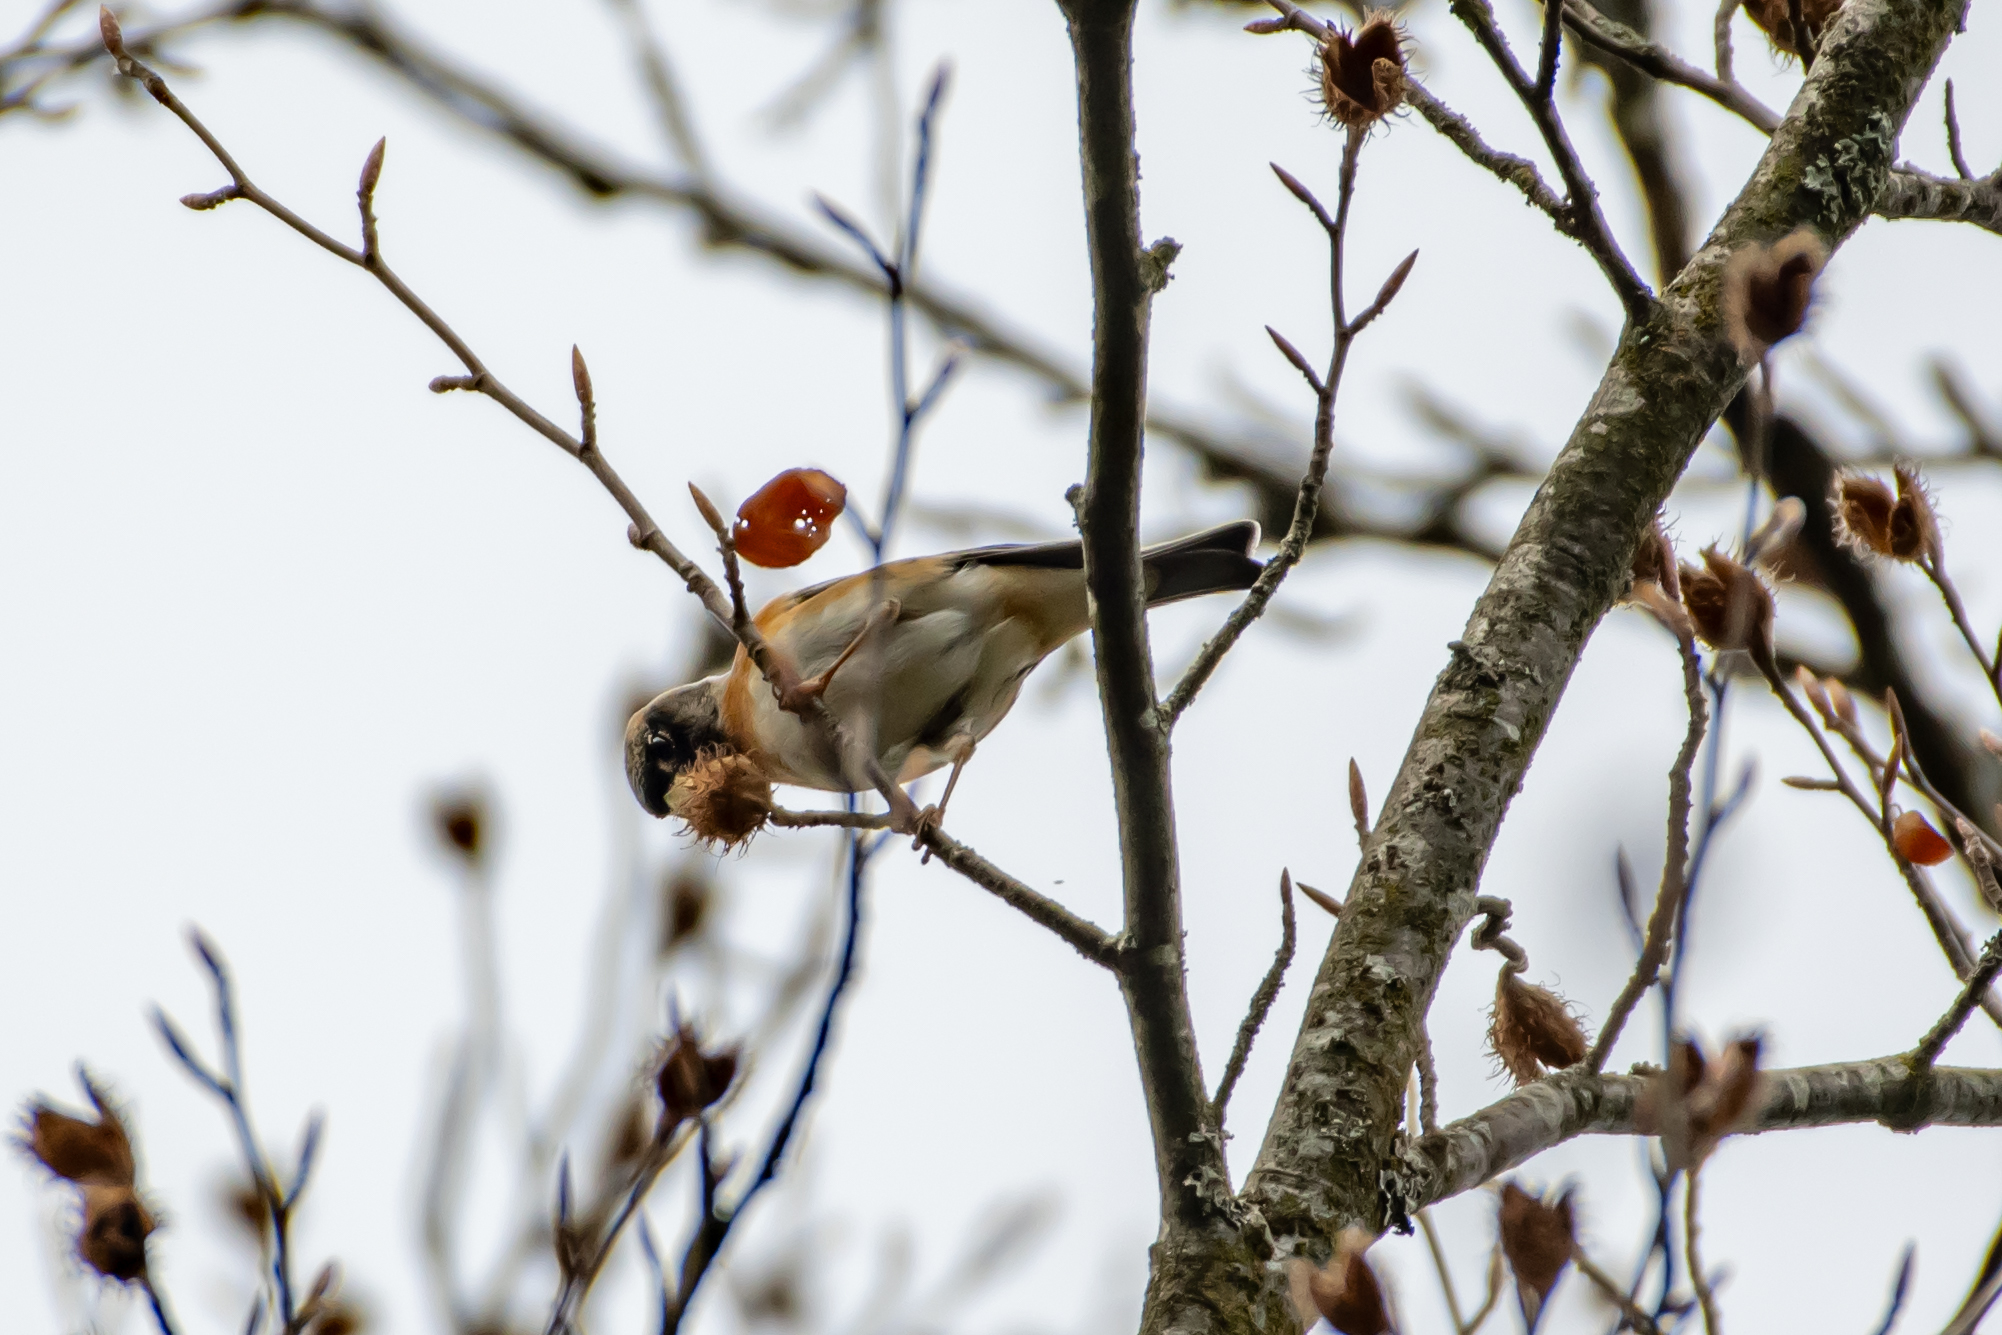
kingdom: Animalia
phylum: Chordata
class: Aves
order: Passeriformes
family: Fringillidae
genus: Fringilla
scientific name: Fringilla montifringilla
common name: Brambling
